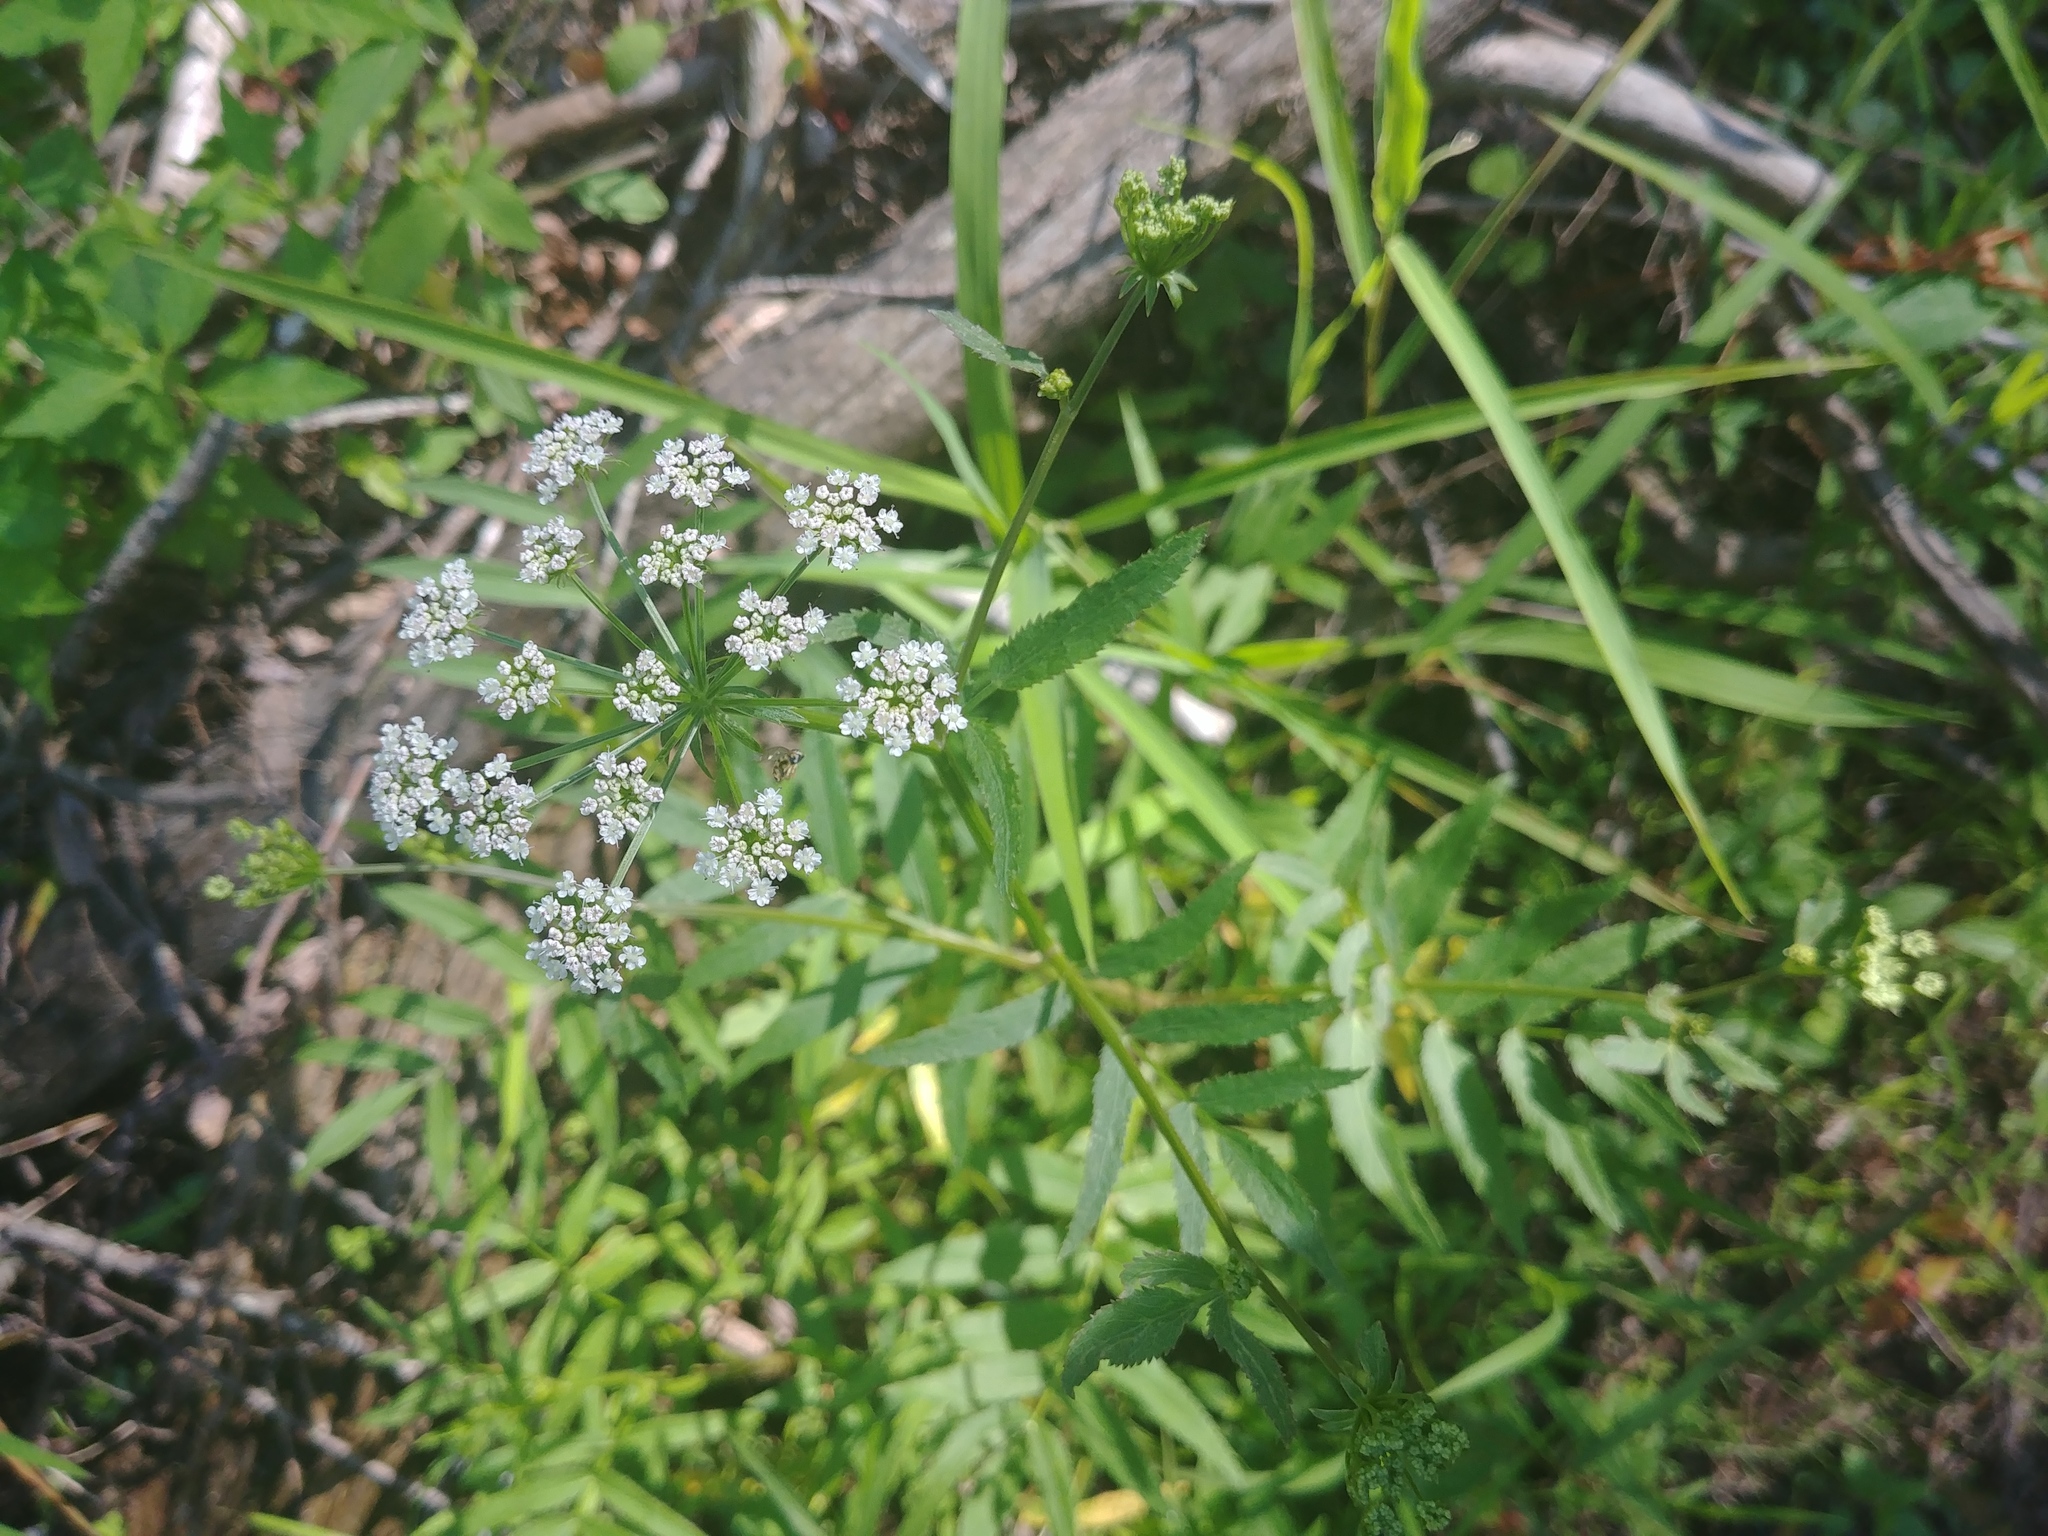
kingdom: Plantae
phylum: Tracheophyta
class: Magnoliopsida
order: Apiales
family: Apiaceae
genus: Sium
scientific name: Sium suave
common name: Hemlock water-parsnip
